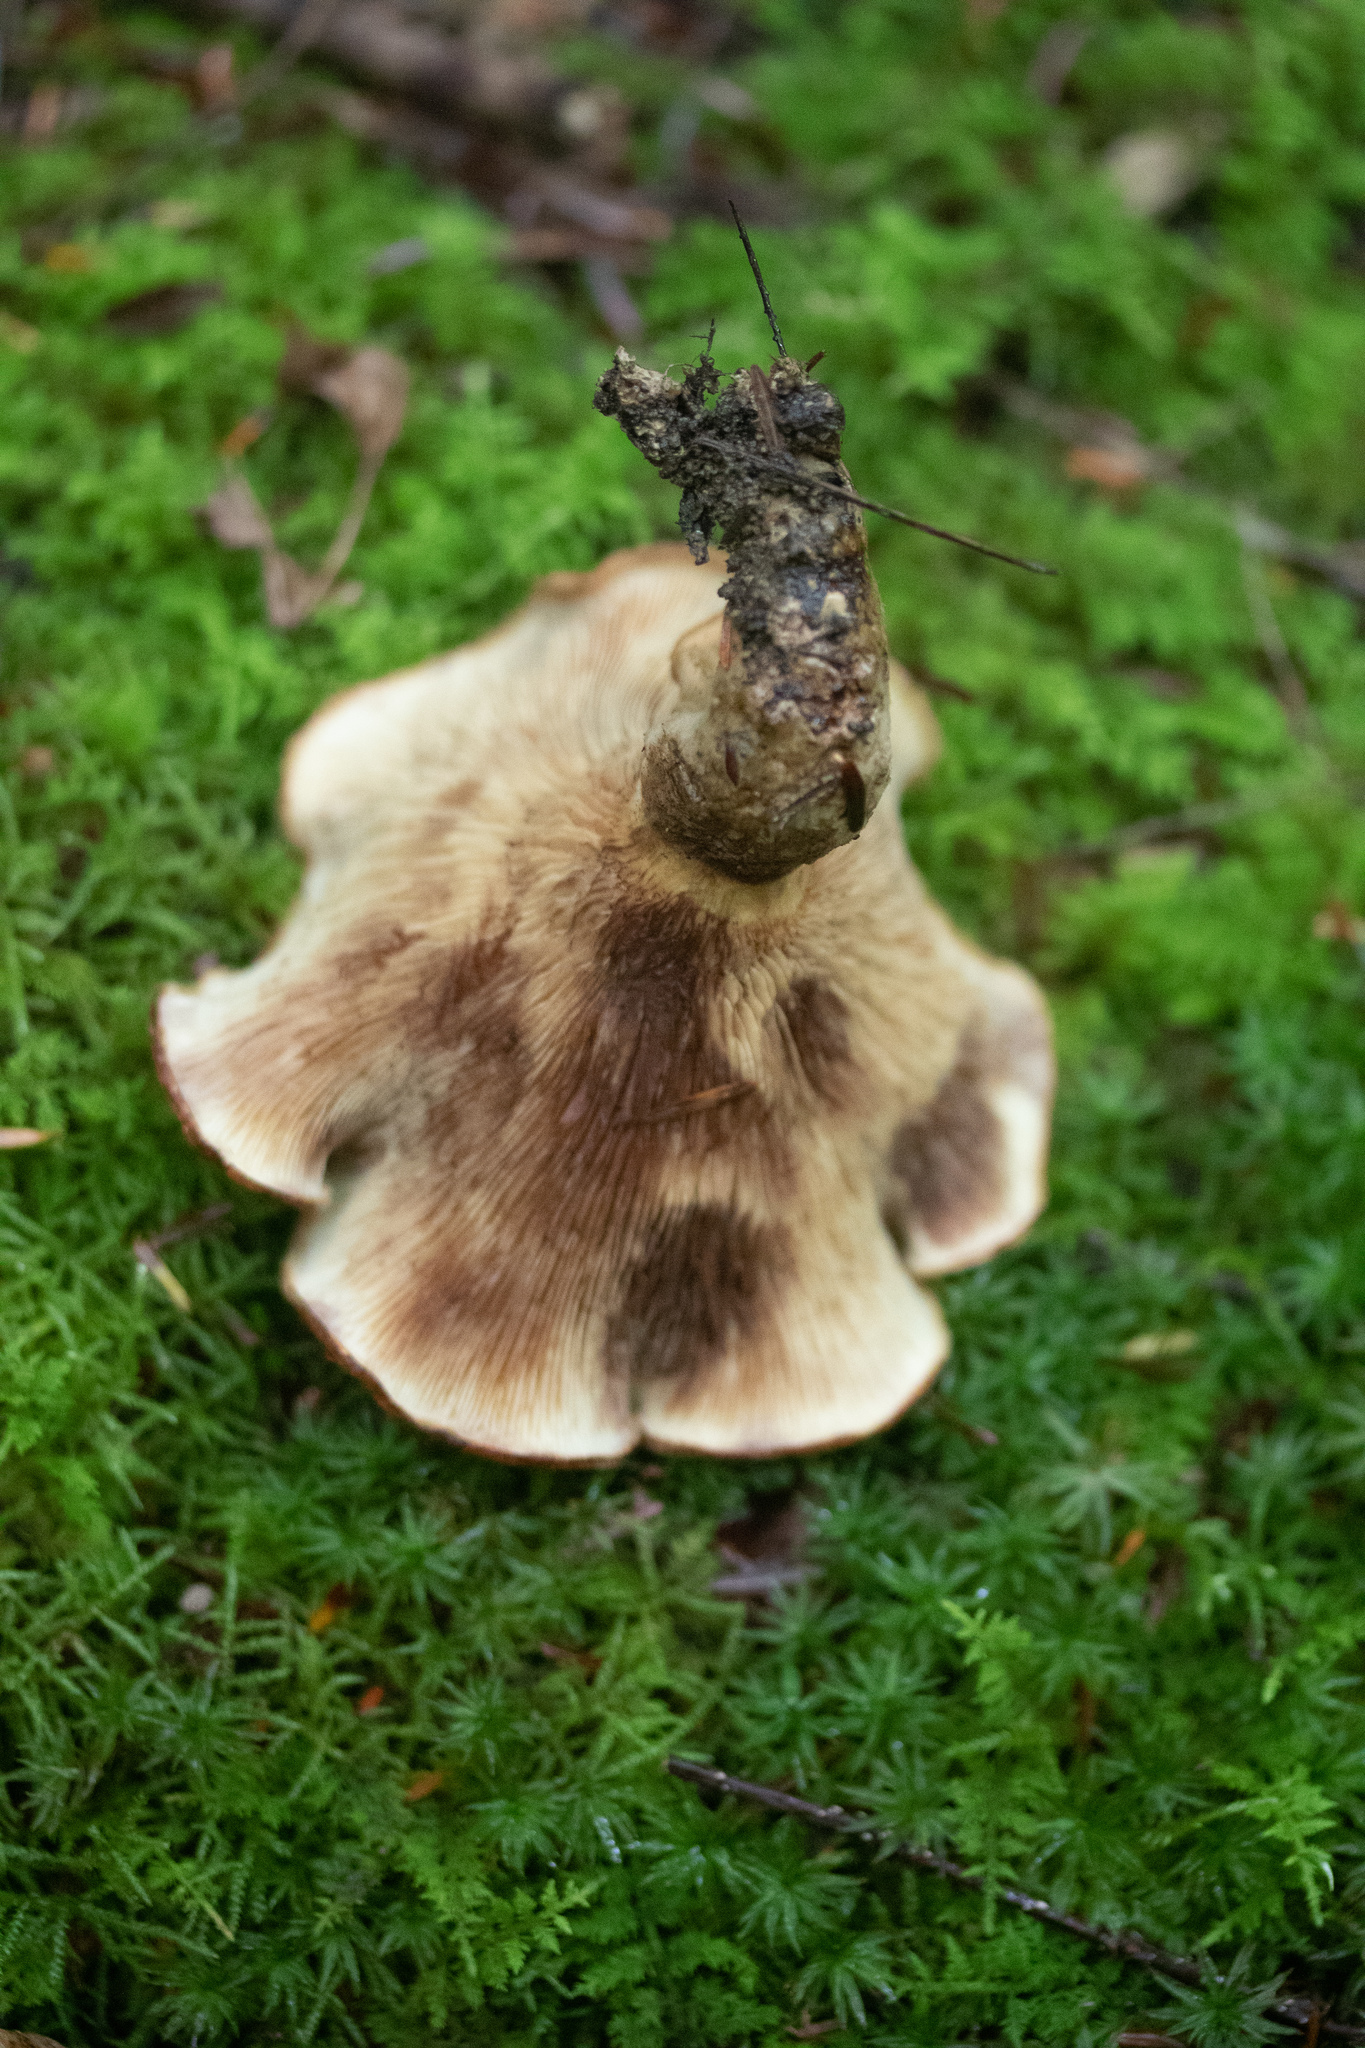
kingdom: Fungi
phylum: Basidiomycota
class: Agaricomycetes
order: Boletales
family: Paxillaceae
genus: Paxillus
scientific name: Paxillus involutus
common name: Brown roll rim
